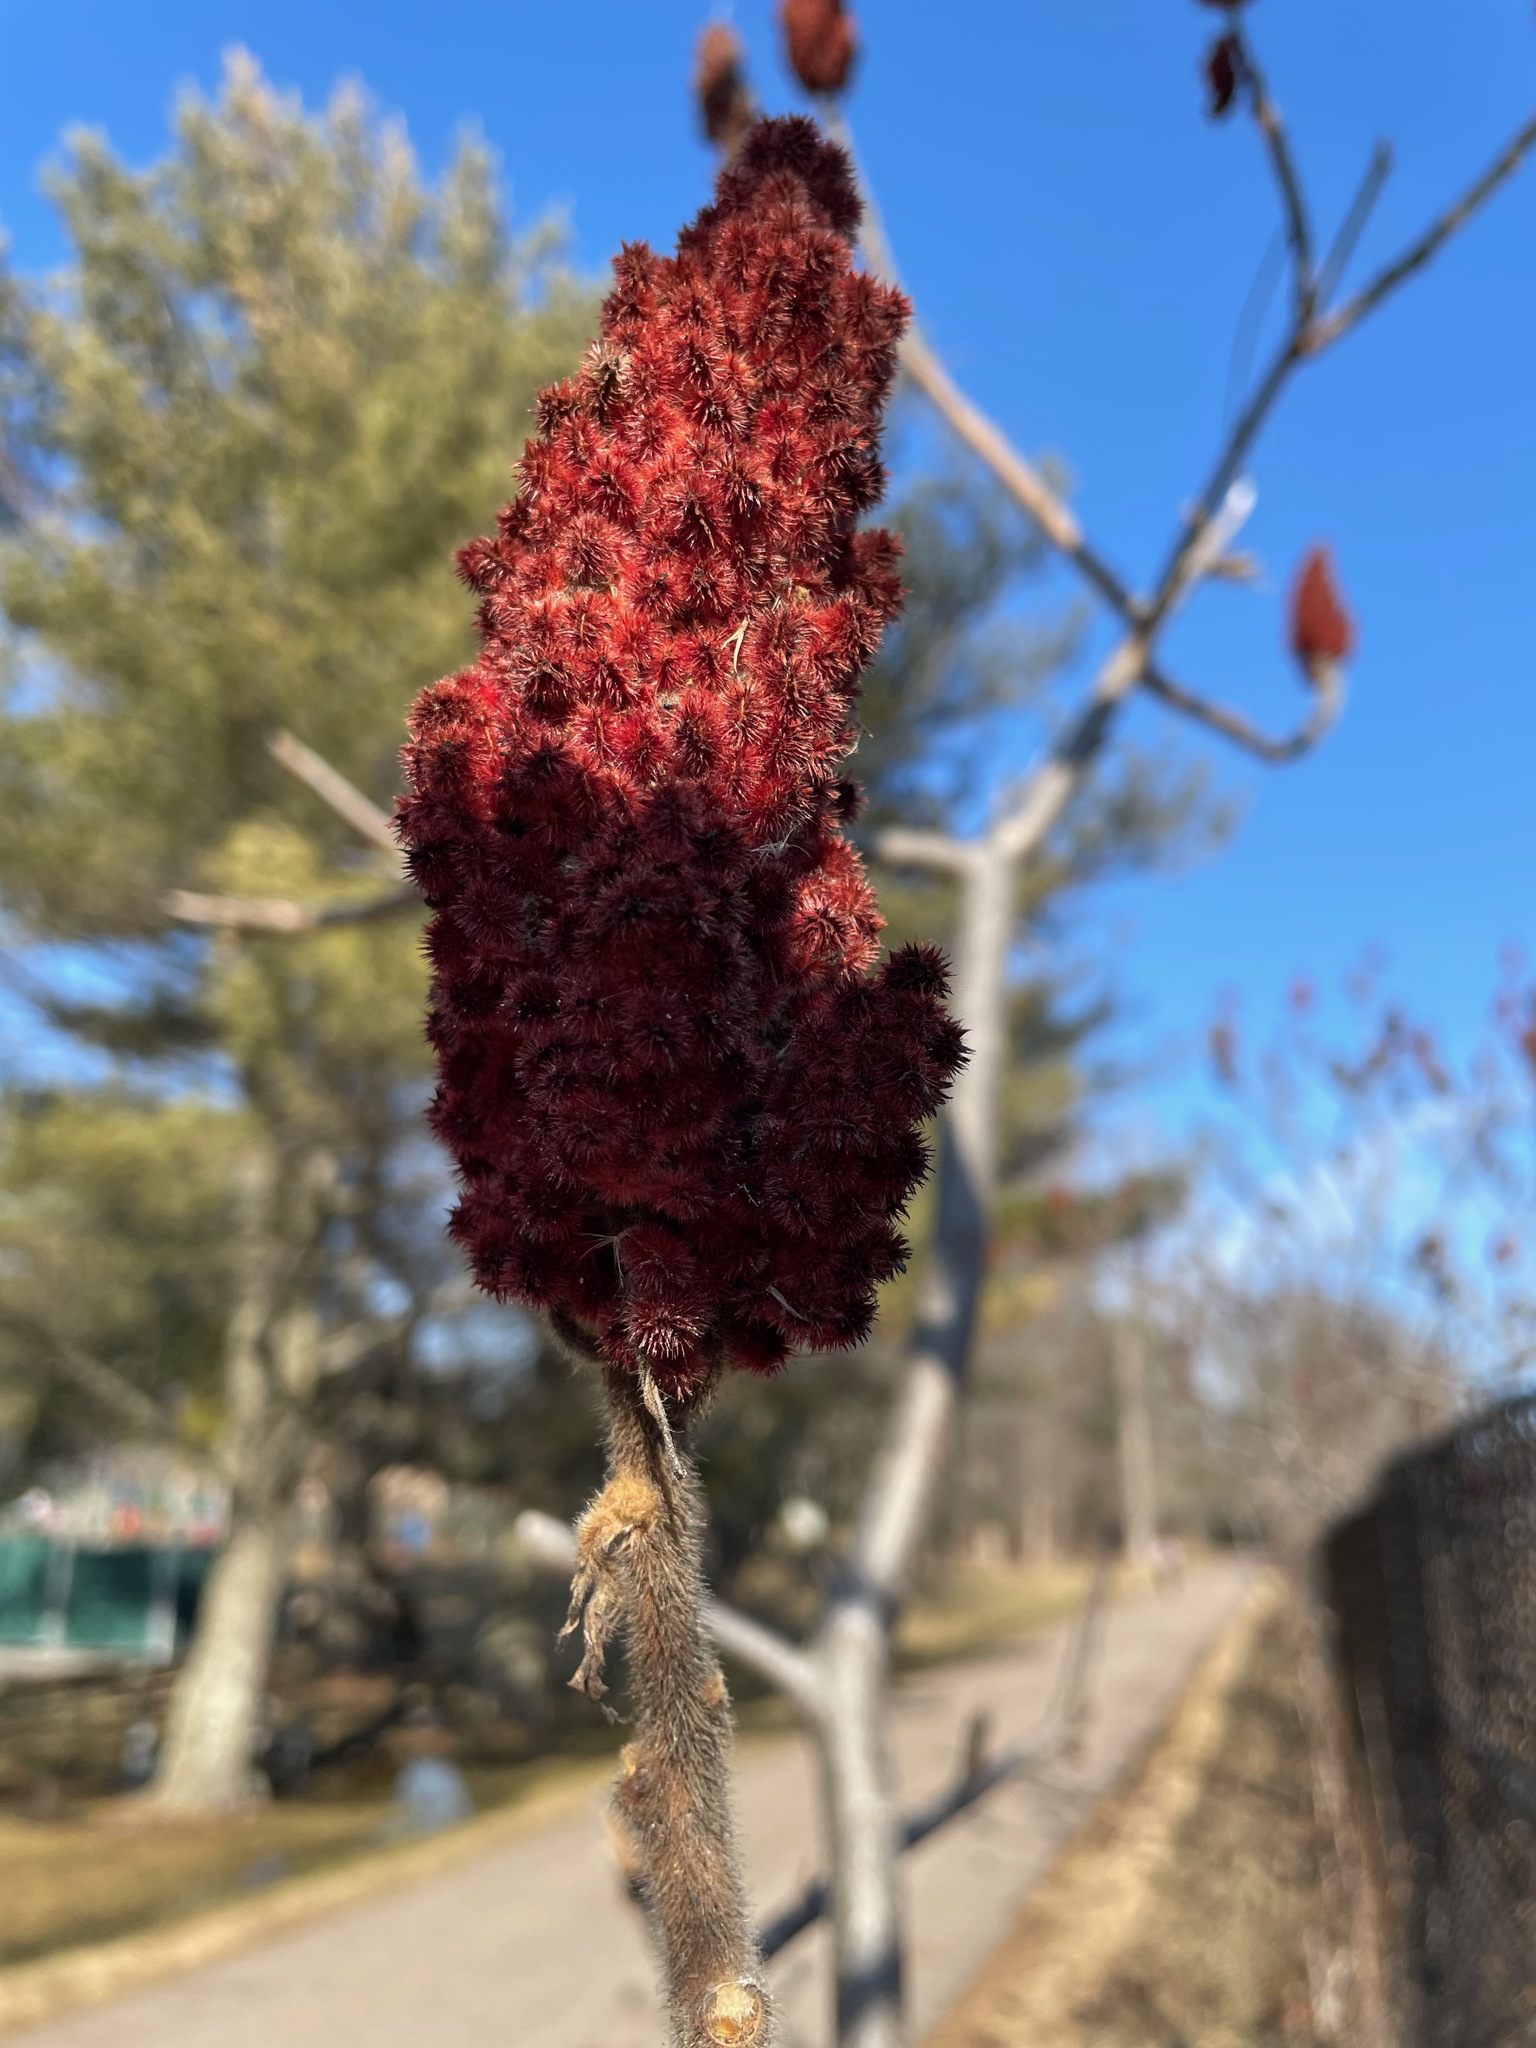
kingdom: Plantae
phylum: Tracheophyta
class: Magnoliopsida
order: Sapindales
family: Anacardiaceae
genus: Rhus
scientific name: Rhus typhina
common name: Staghorn sumac
